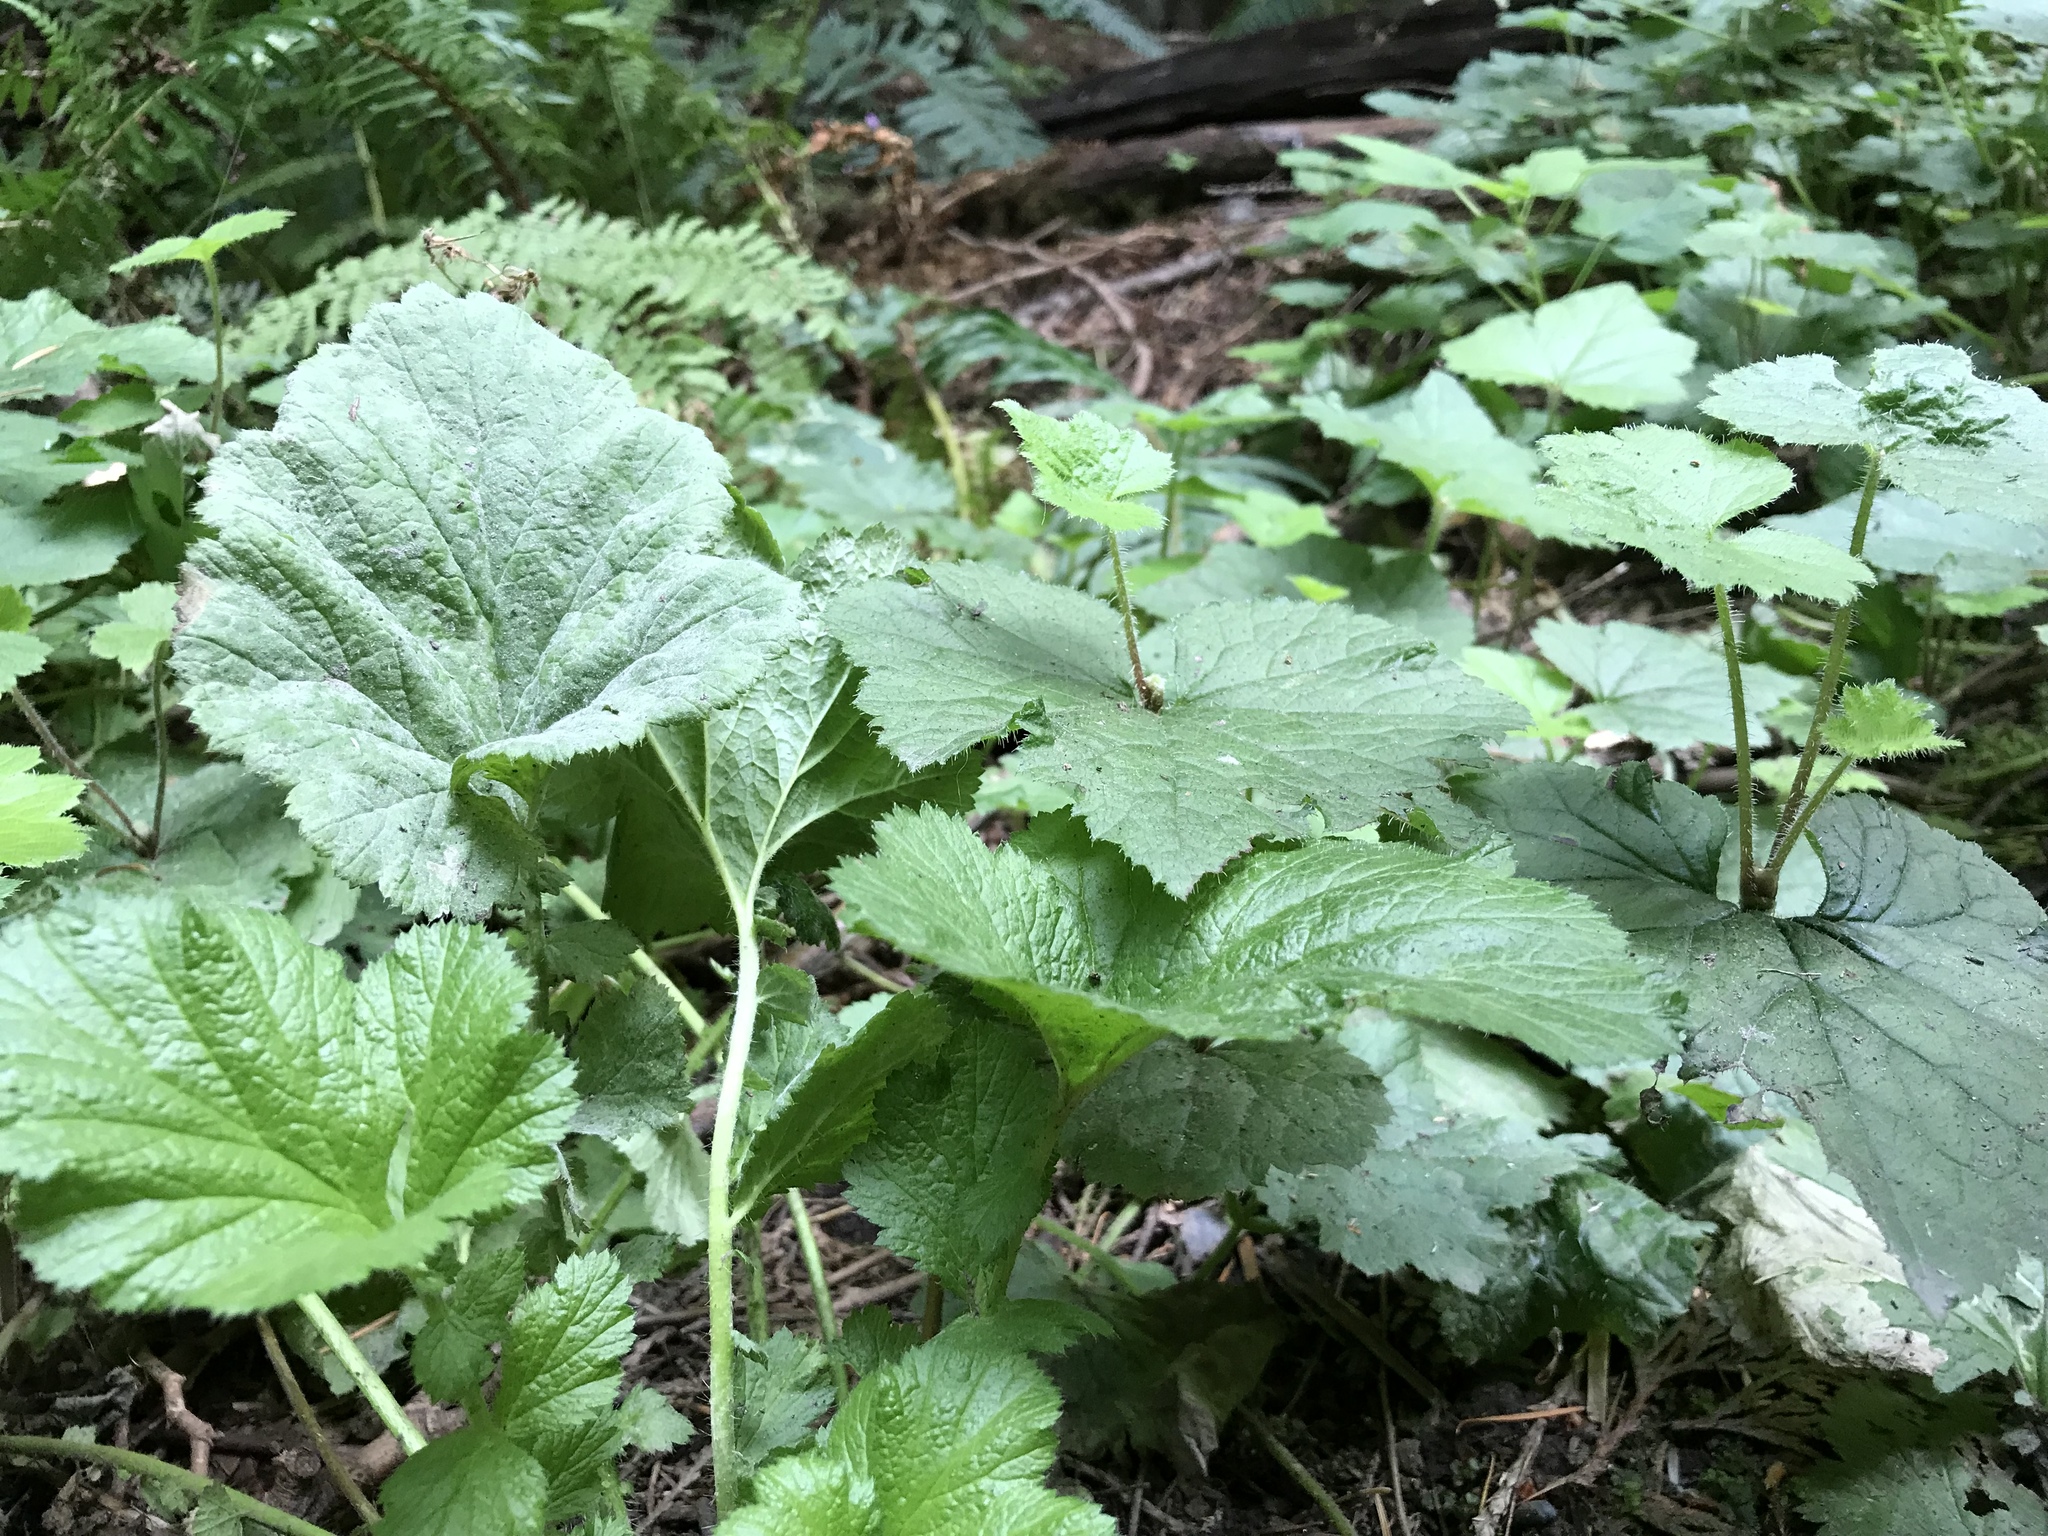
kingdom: Plantae
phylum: Tracheophyta
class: Magnoliopsida
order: Saxifragales
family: Saxifragaceae
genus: Tolmiea
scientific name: Tolmiea menziesii
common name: Pick-a-back-plant
